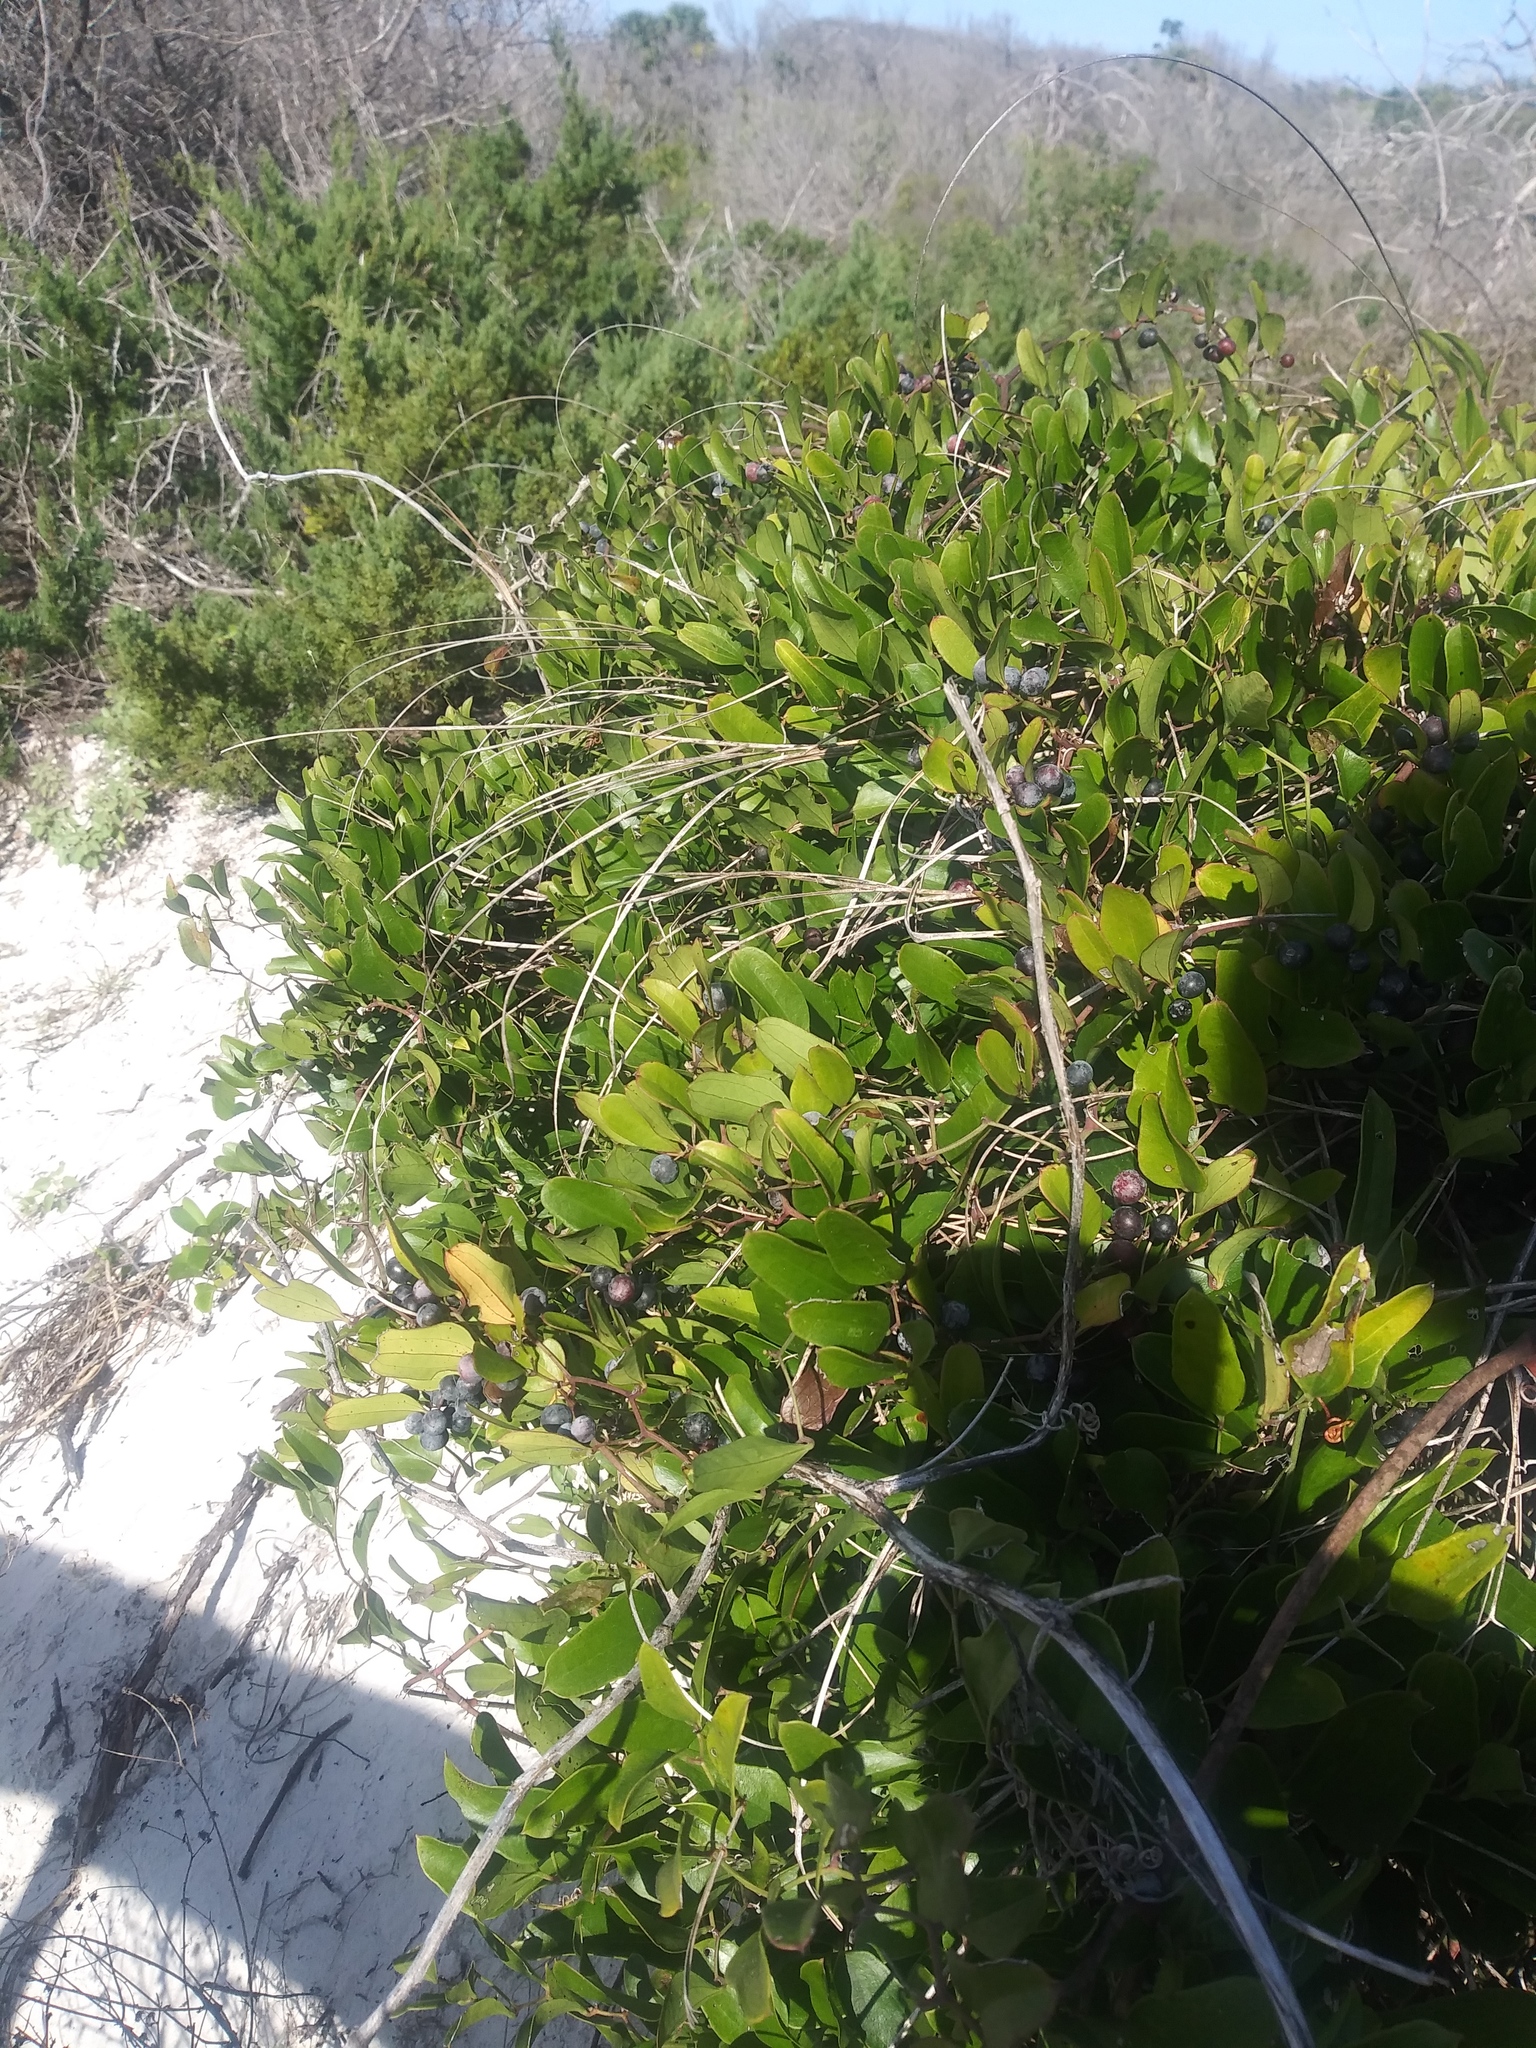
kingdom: Plantae
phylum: Tracheophyta
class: Liliopsida
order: Liliales
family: Smilacaceae
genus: Smilax
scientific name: Smilax auriculata
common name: Wild bamboo
